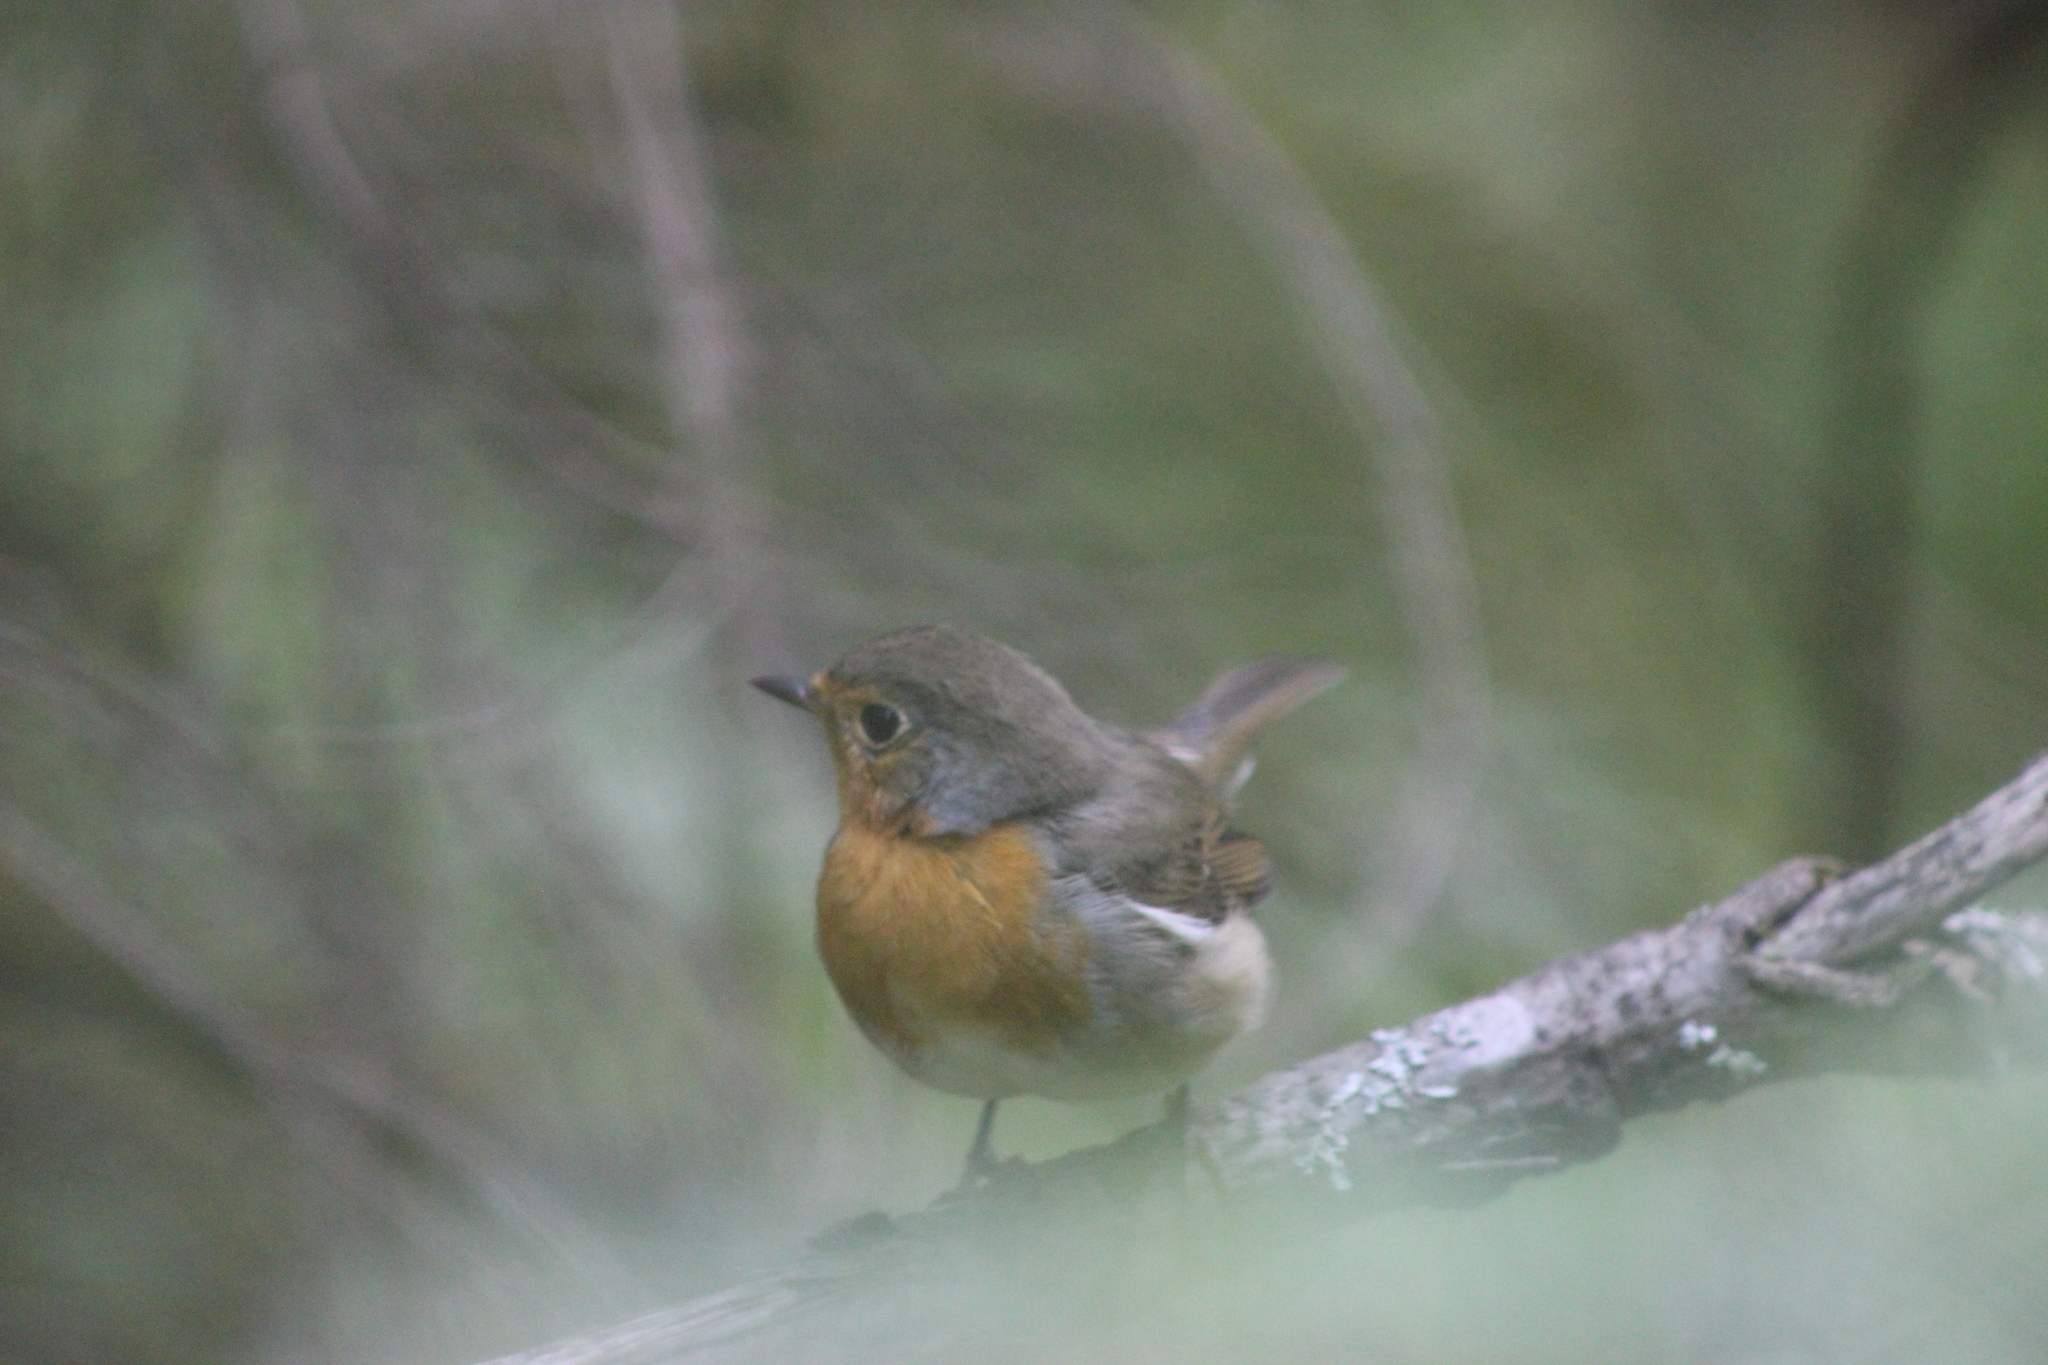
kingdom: Animalia
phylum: Chordata
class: Aves
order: Passeriformes
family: Muscicapidae
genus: Erithacus
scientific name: Erithacus rubecula
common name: European robin
